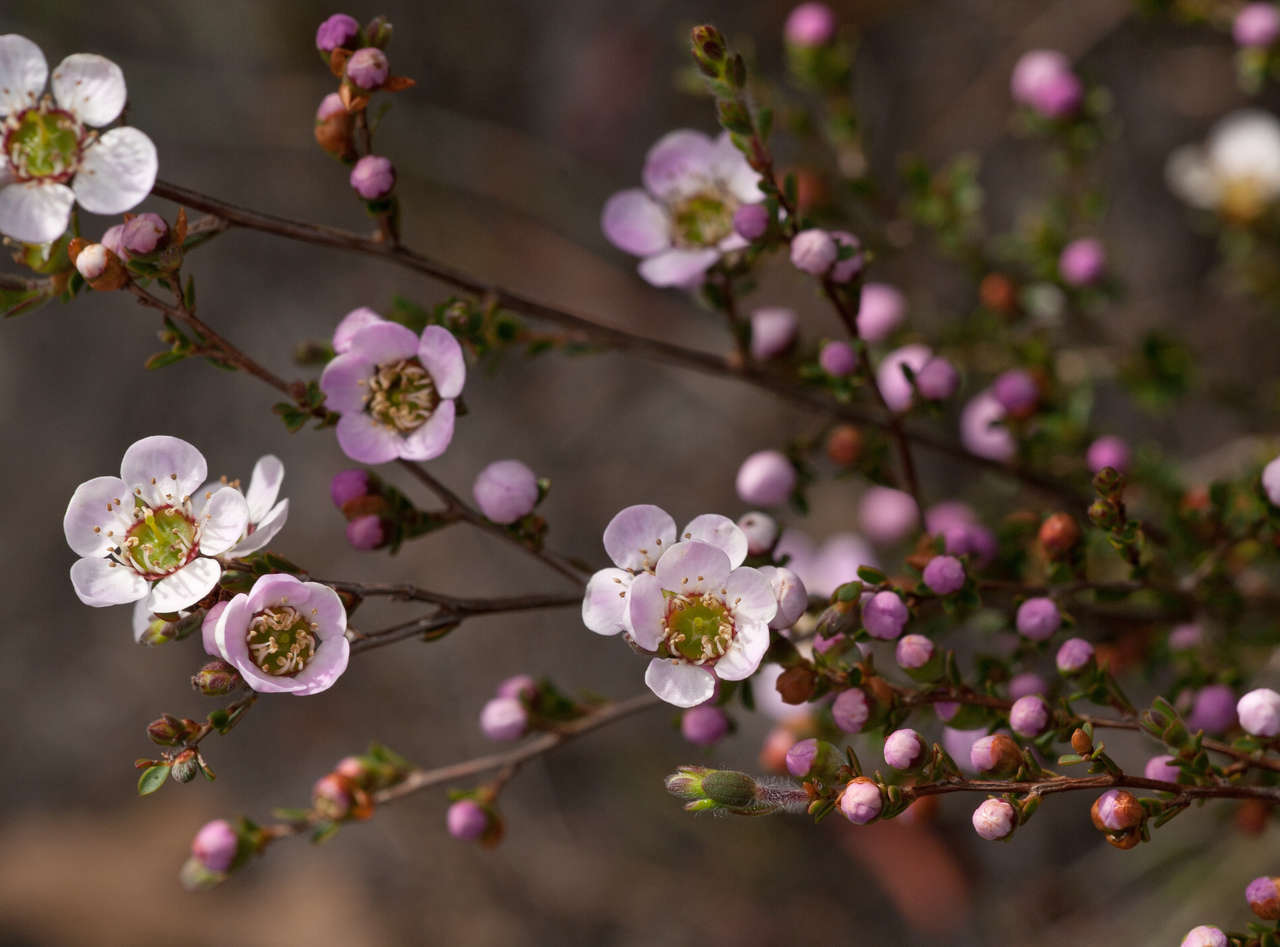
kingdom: Plantae
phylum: Tracheophyta
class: Magnoliopsida
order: Myrtales
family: Myrtaceae
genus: Leptospermum
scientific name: Leptospermum myrsinoides
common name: Heath teatree
